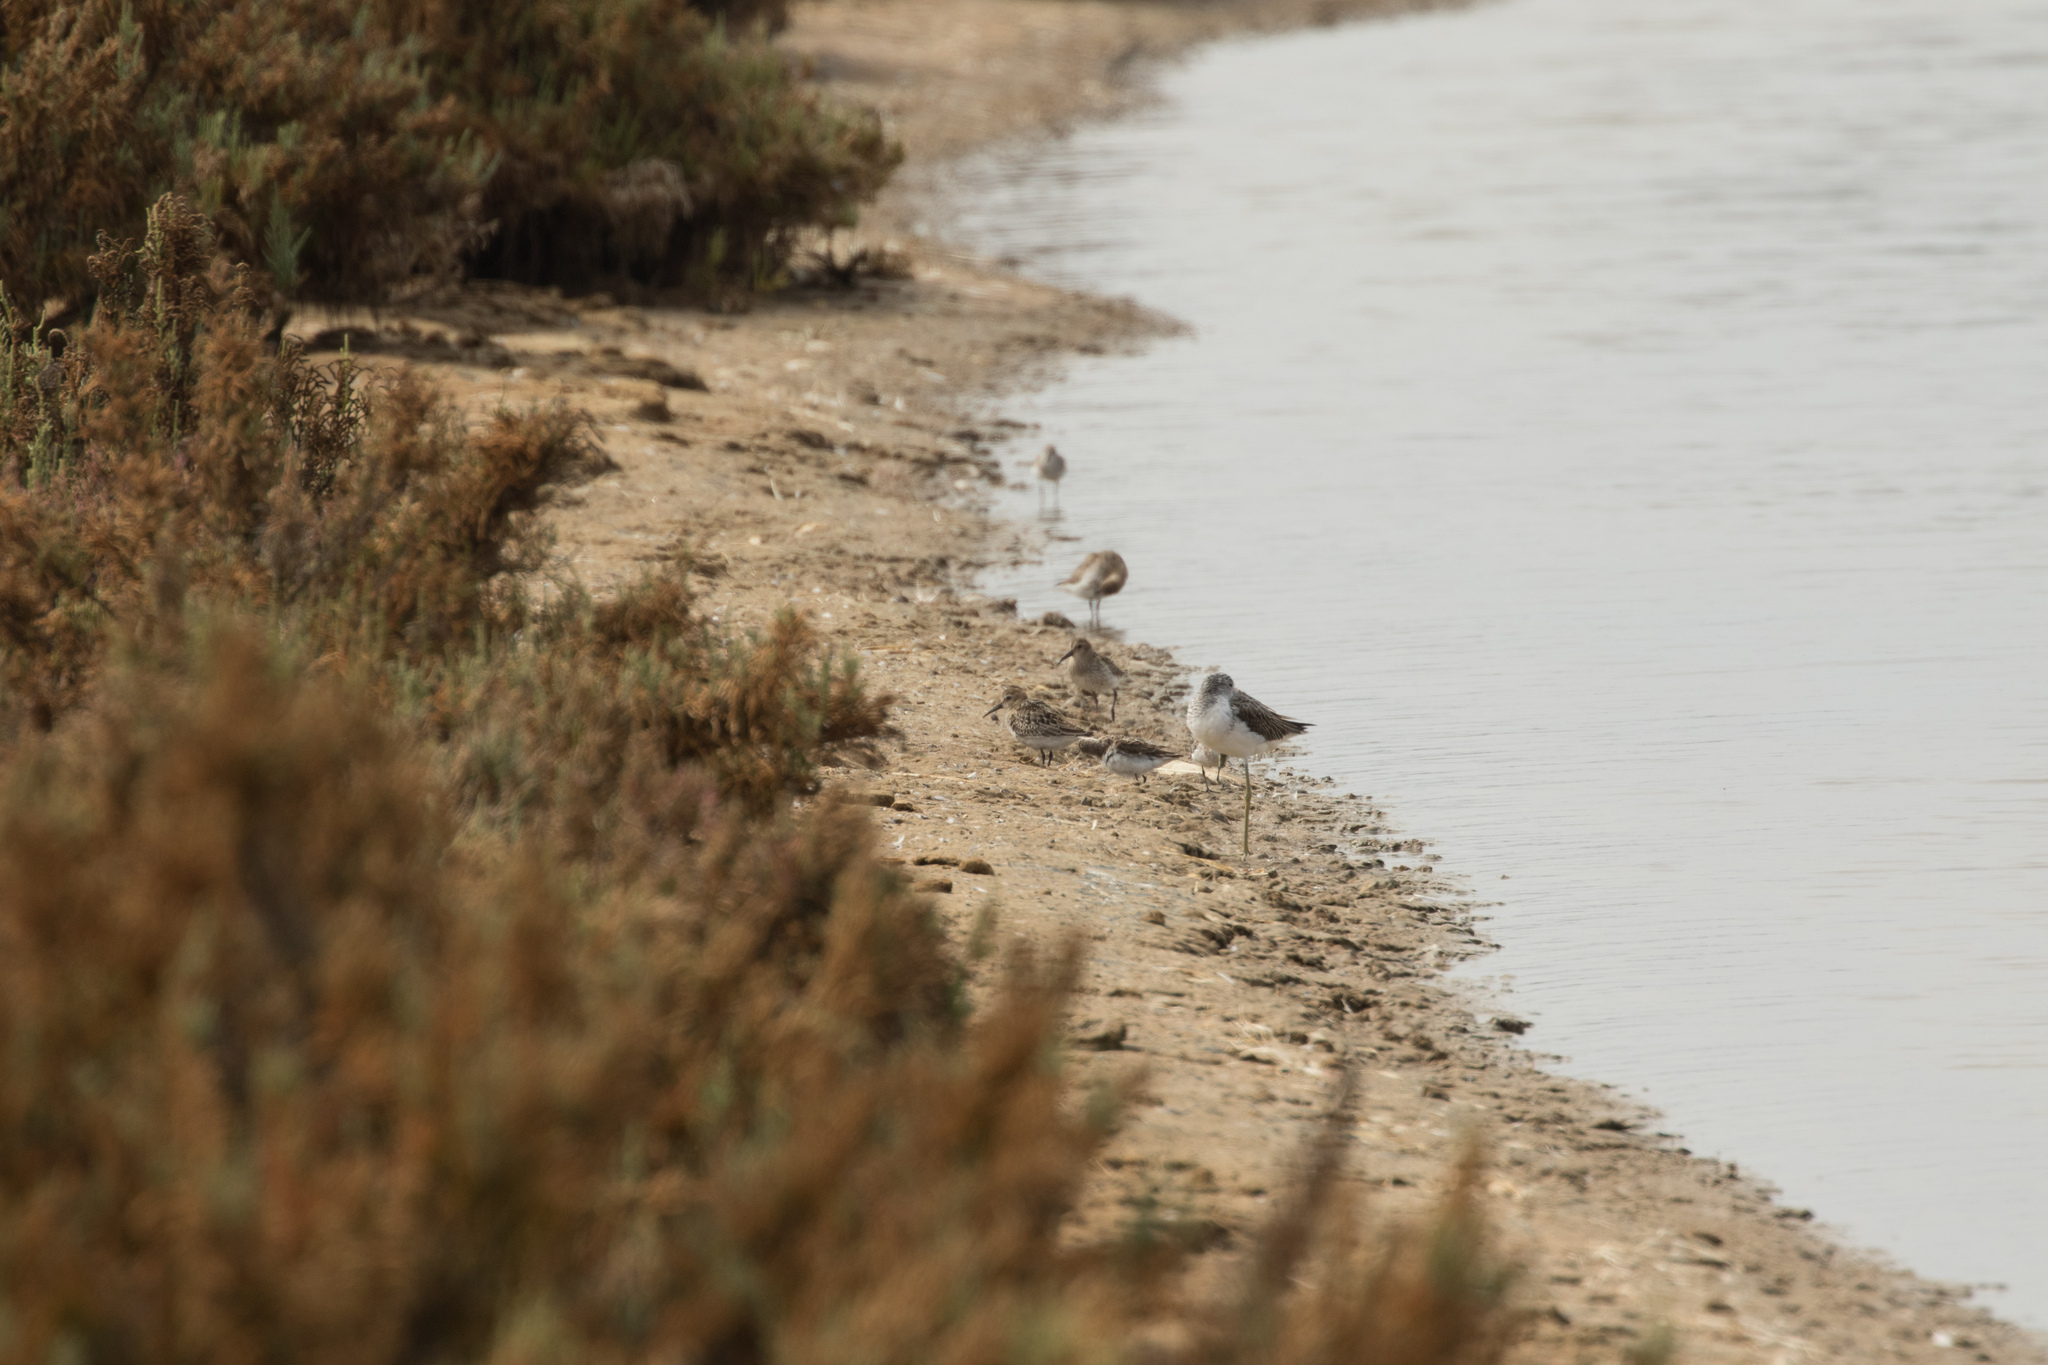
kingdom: Animalia
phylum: Chordata
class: Aves
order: Charadriiformes
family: Scolopacidae
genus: Calidris
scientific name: Calidris alpina
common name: Dunlin
